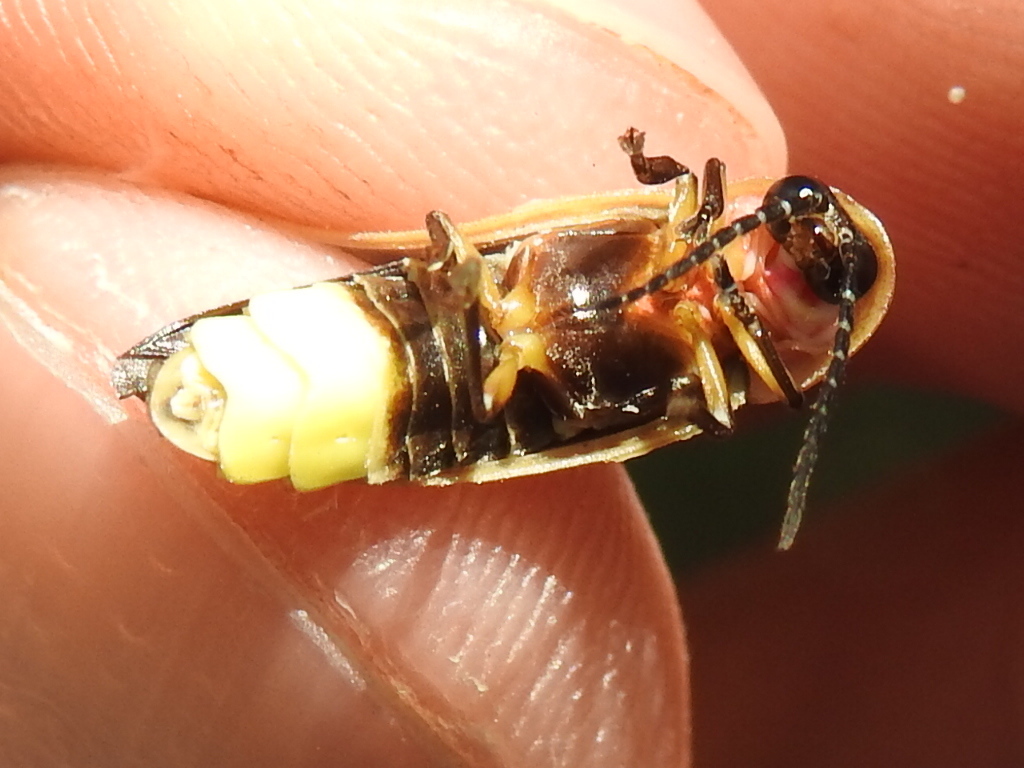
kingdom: Animalia
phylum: Arthropoda
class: Insecta
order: Coleoptera
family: Lampyridae
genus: Photinus
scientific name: Photinus pyralis
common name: Big dipper firefly
